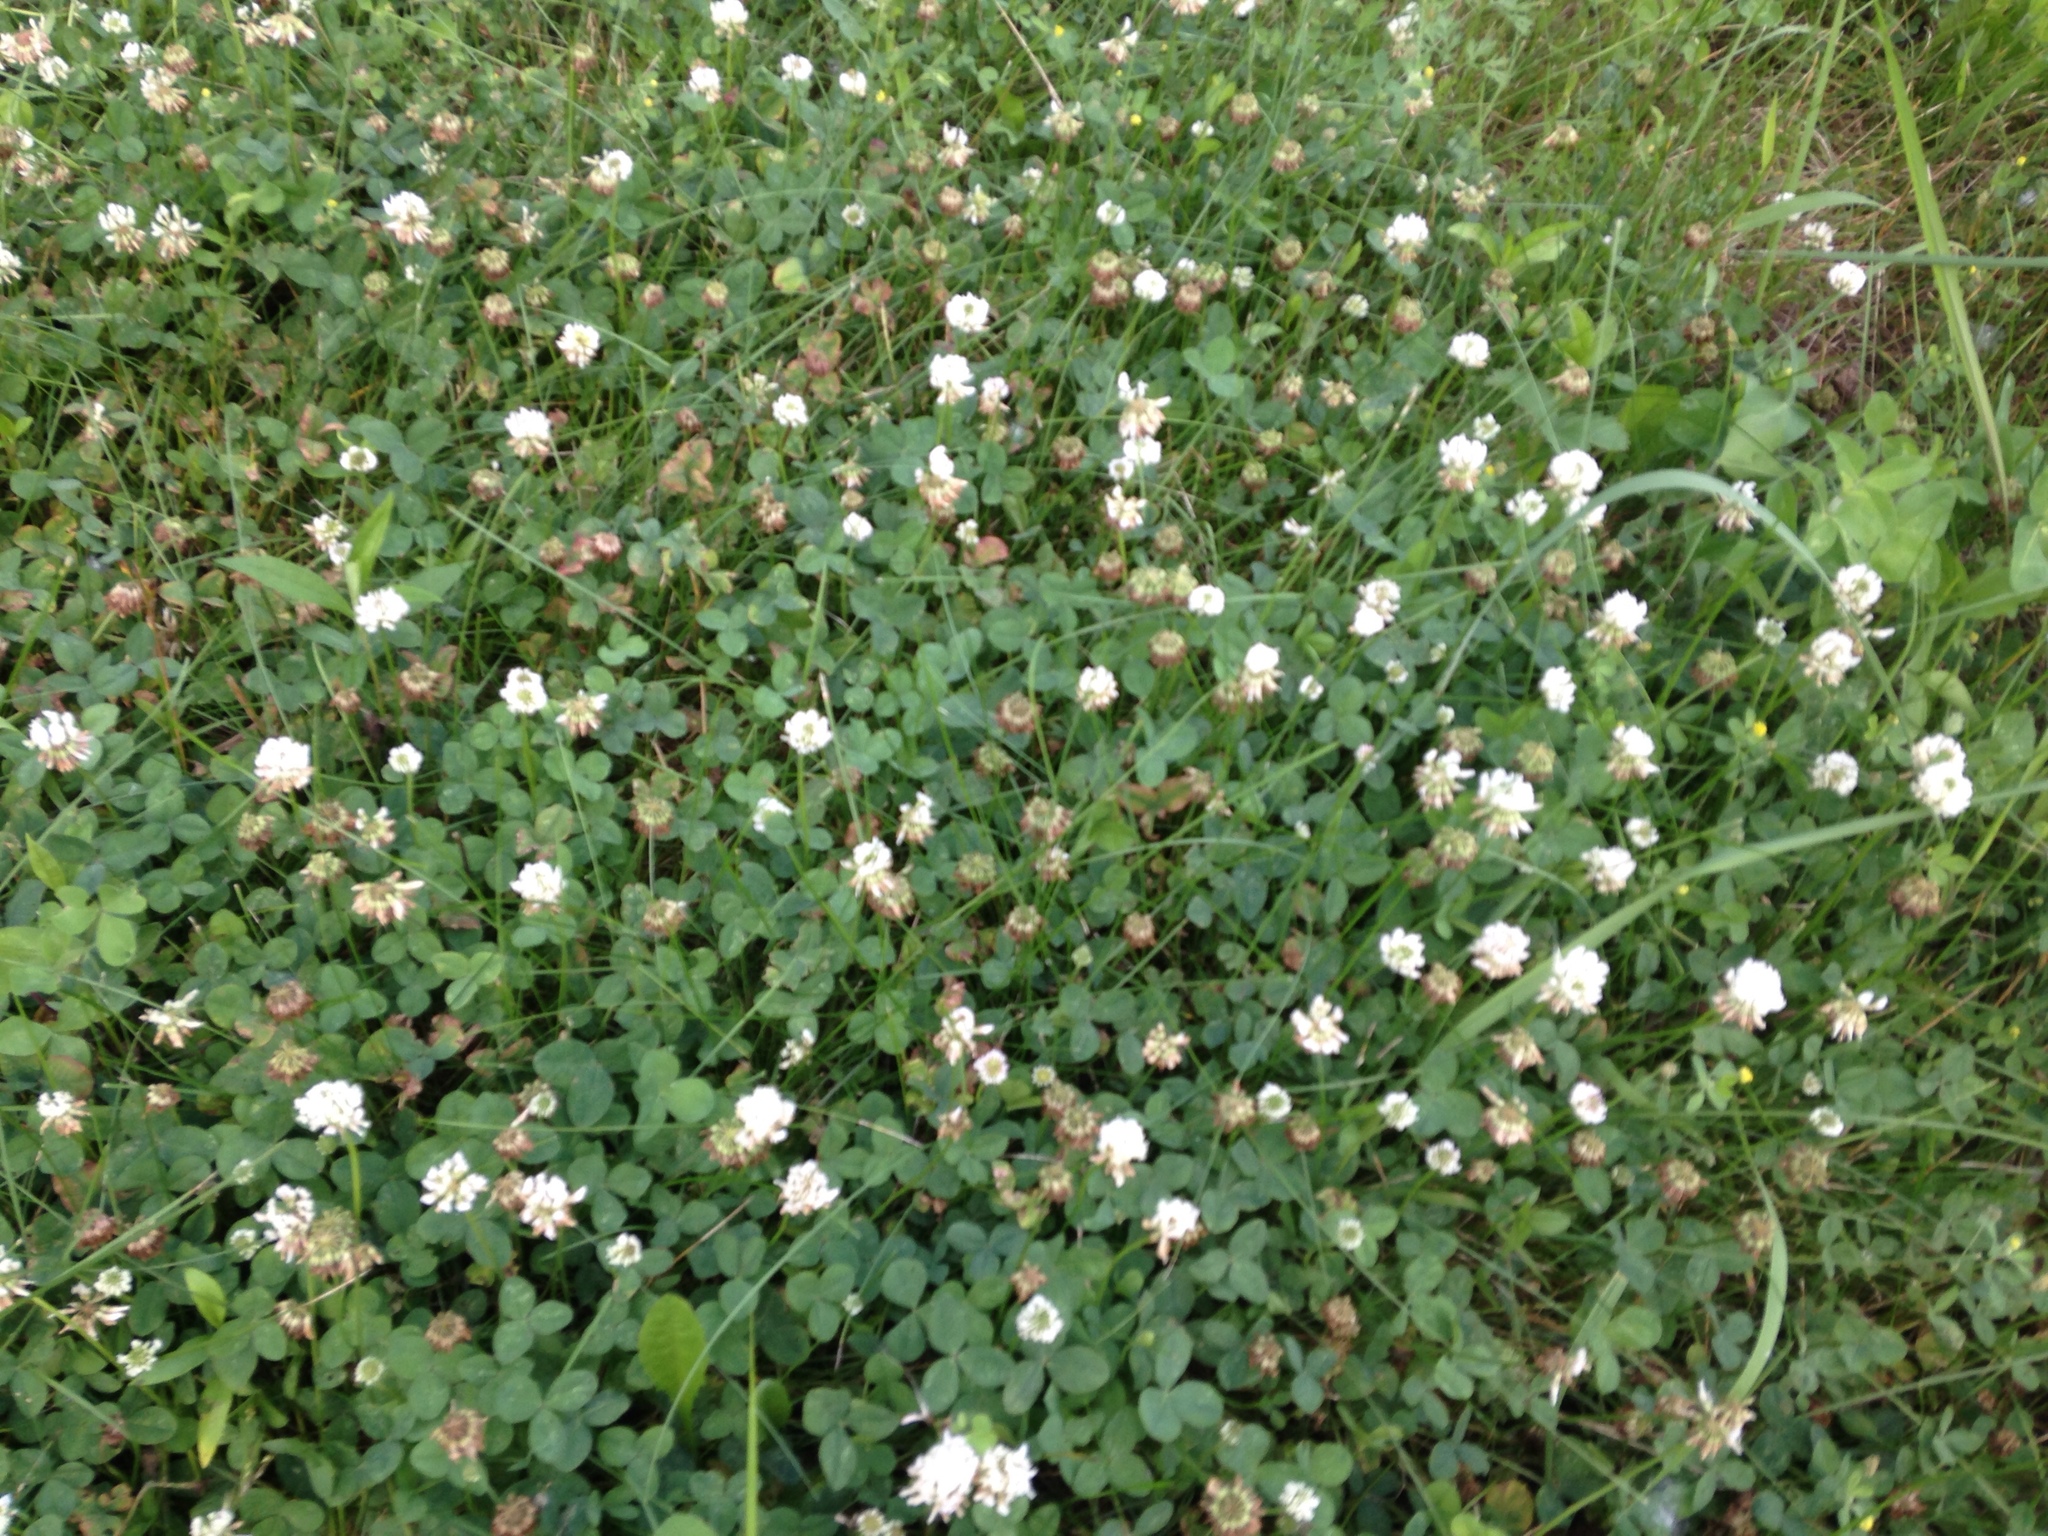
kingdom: Plantae
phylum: Tracheophyta
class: Magnoliopsida
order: Fabales
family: Fabaceae
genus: Trifolium
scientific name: Trifolium repens
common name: White clover
